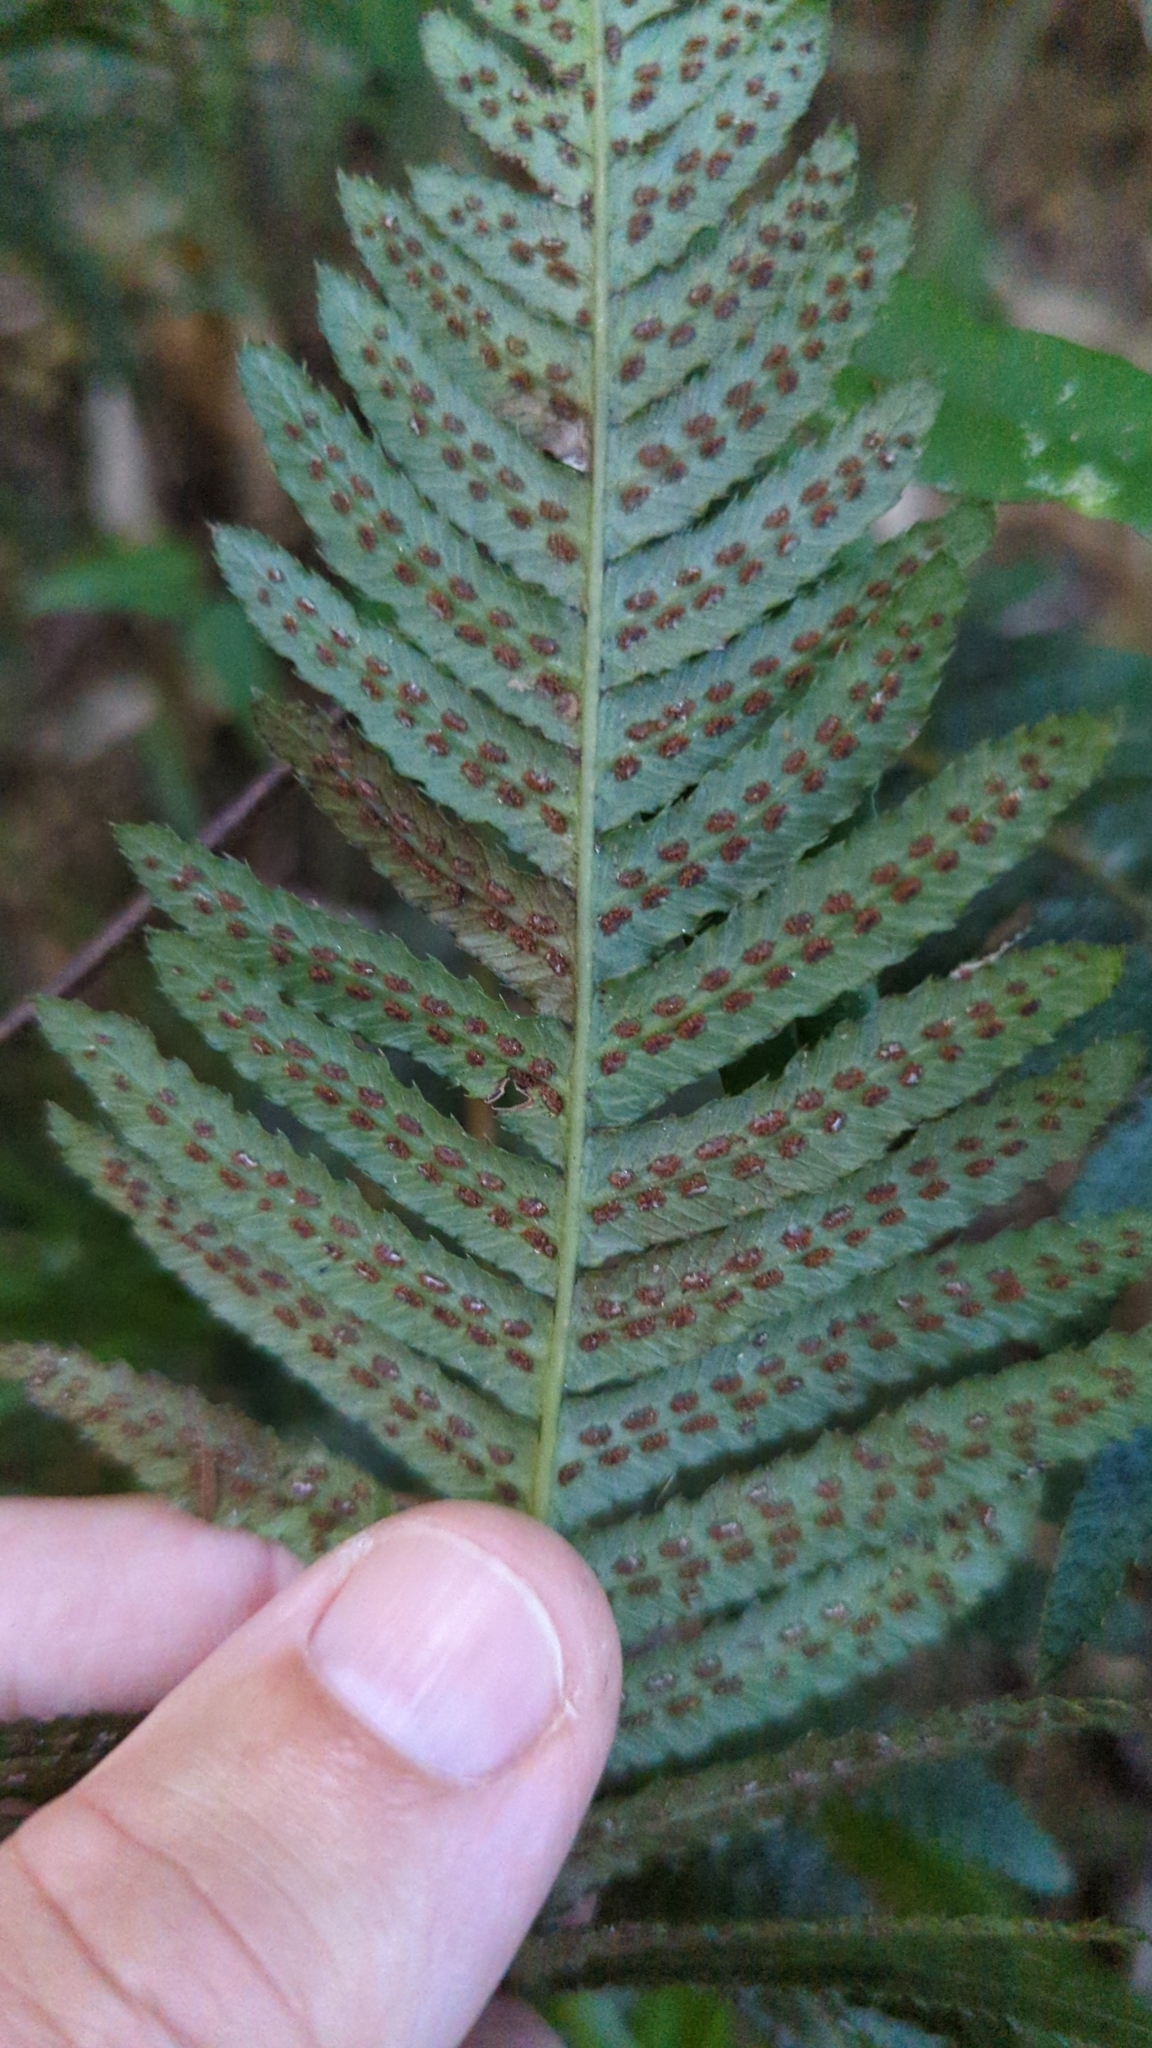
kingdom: Plantae
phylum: Tracheophyta
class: Polypodiopsida
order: Polypodiales
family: Blechnaceae
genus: Doodia
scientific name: Doodia australis
